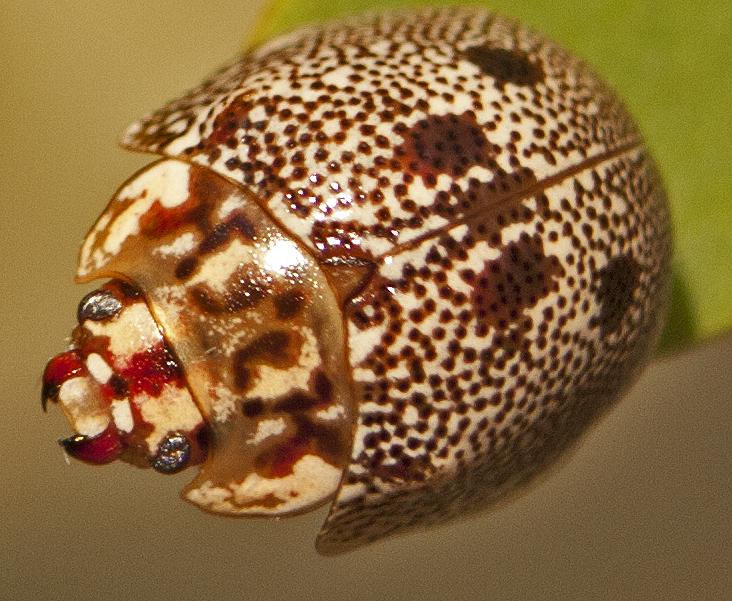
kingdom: Animalia
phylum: Arthropoda
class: Insecta
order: Coleoptera
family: Chrysomelidae
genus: Paropsis
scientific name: Paropsis sospita
